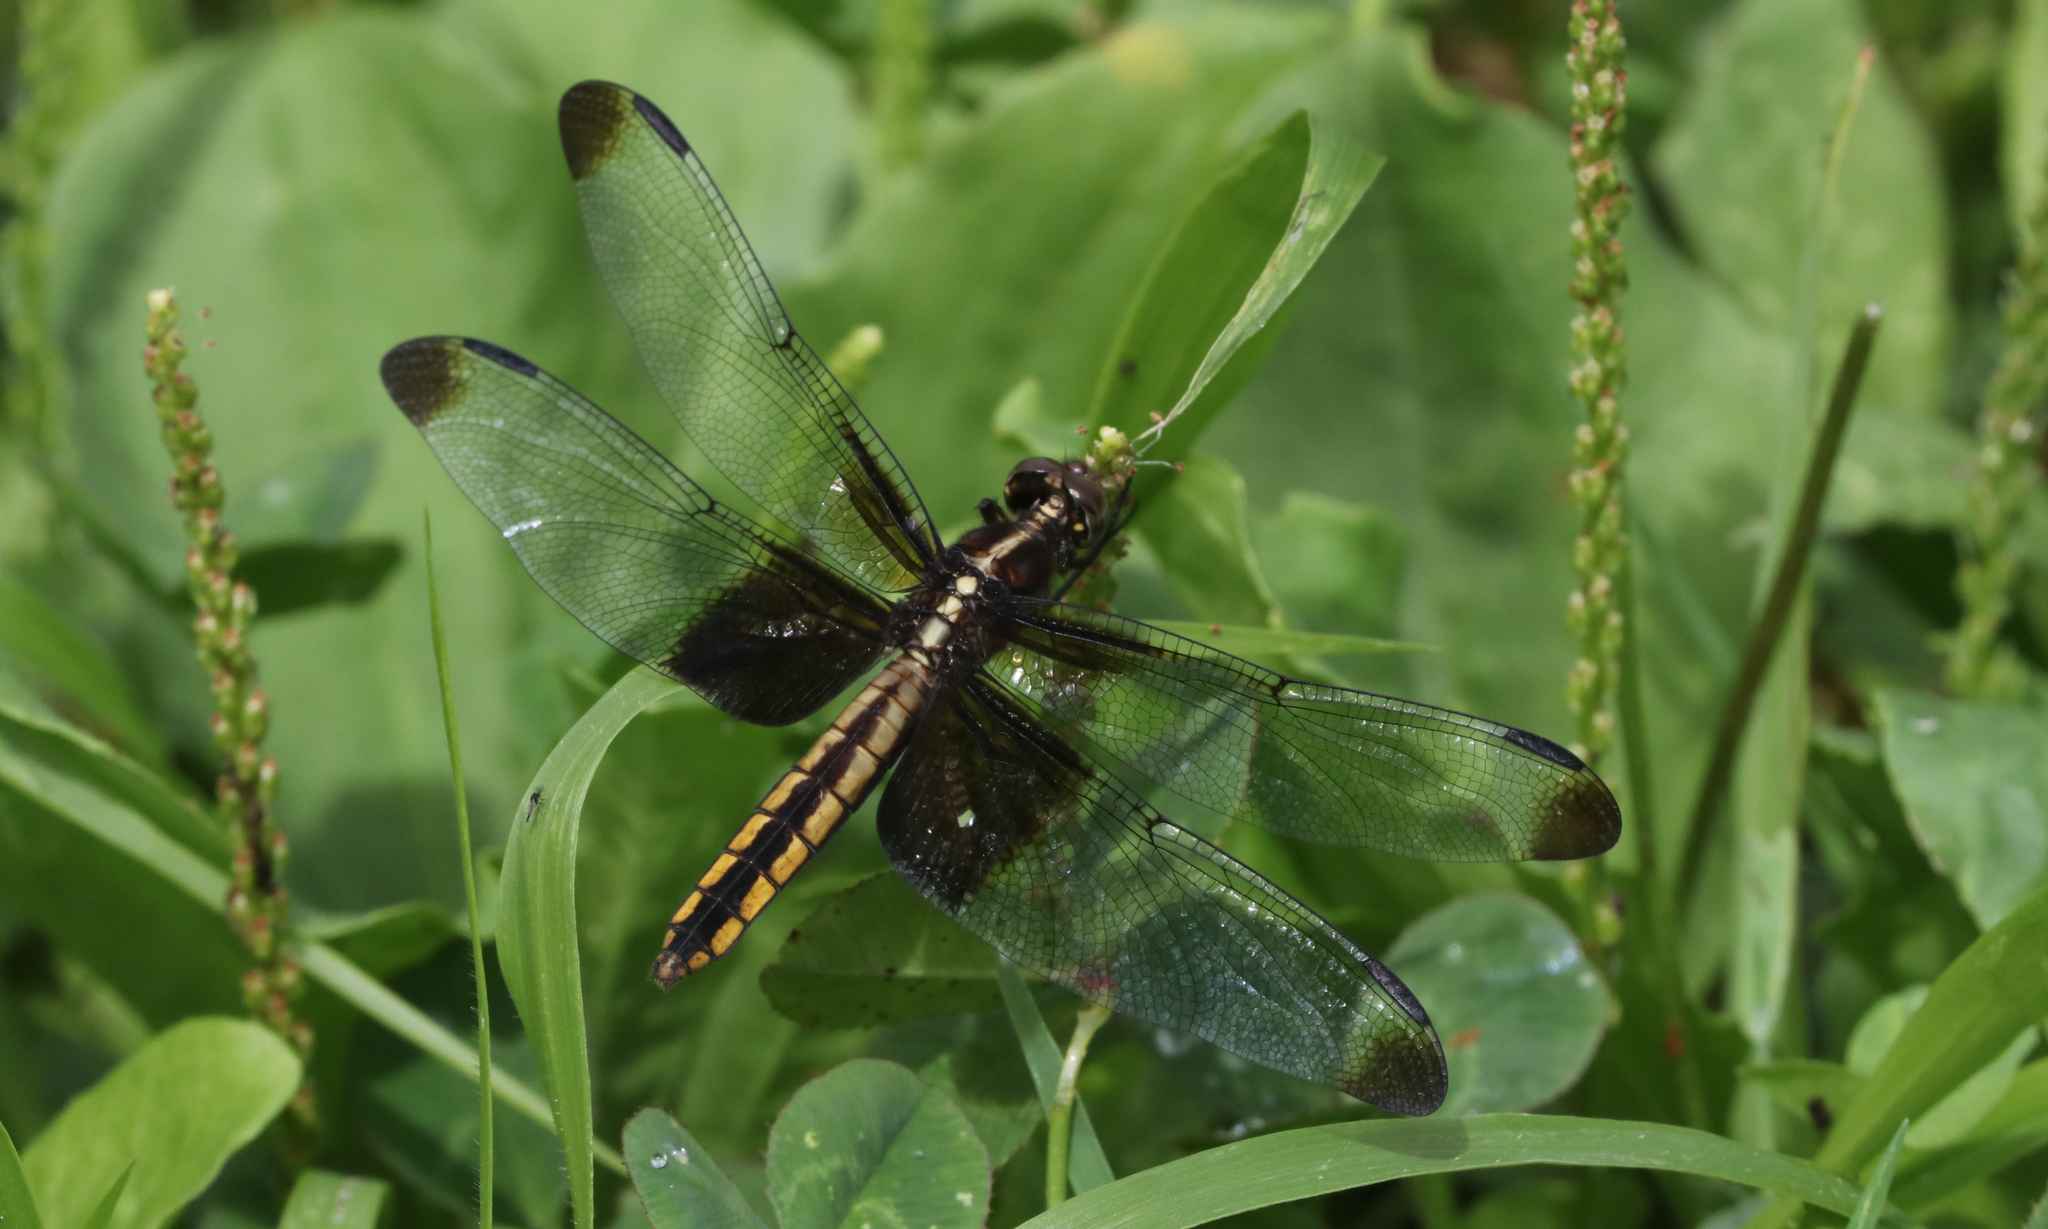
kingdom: Animalia
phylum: Arthropoda
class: Insecta
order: Odonata
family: Libellulidae
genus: Libellula
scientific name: Libellula luctuosa
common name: Widow skimmer
